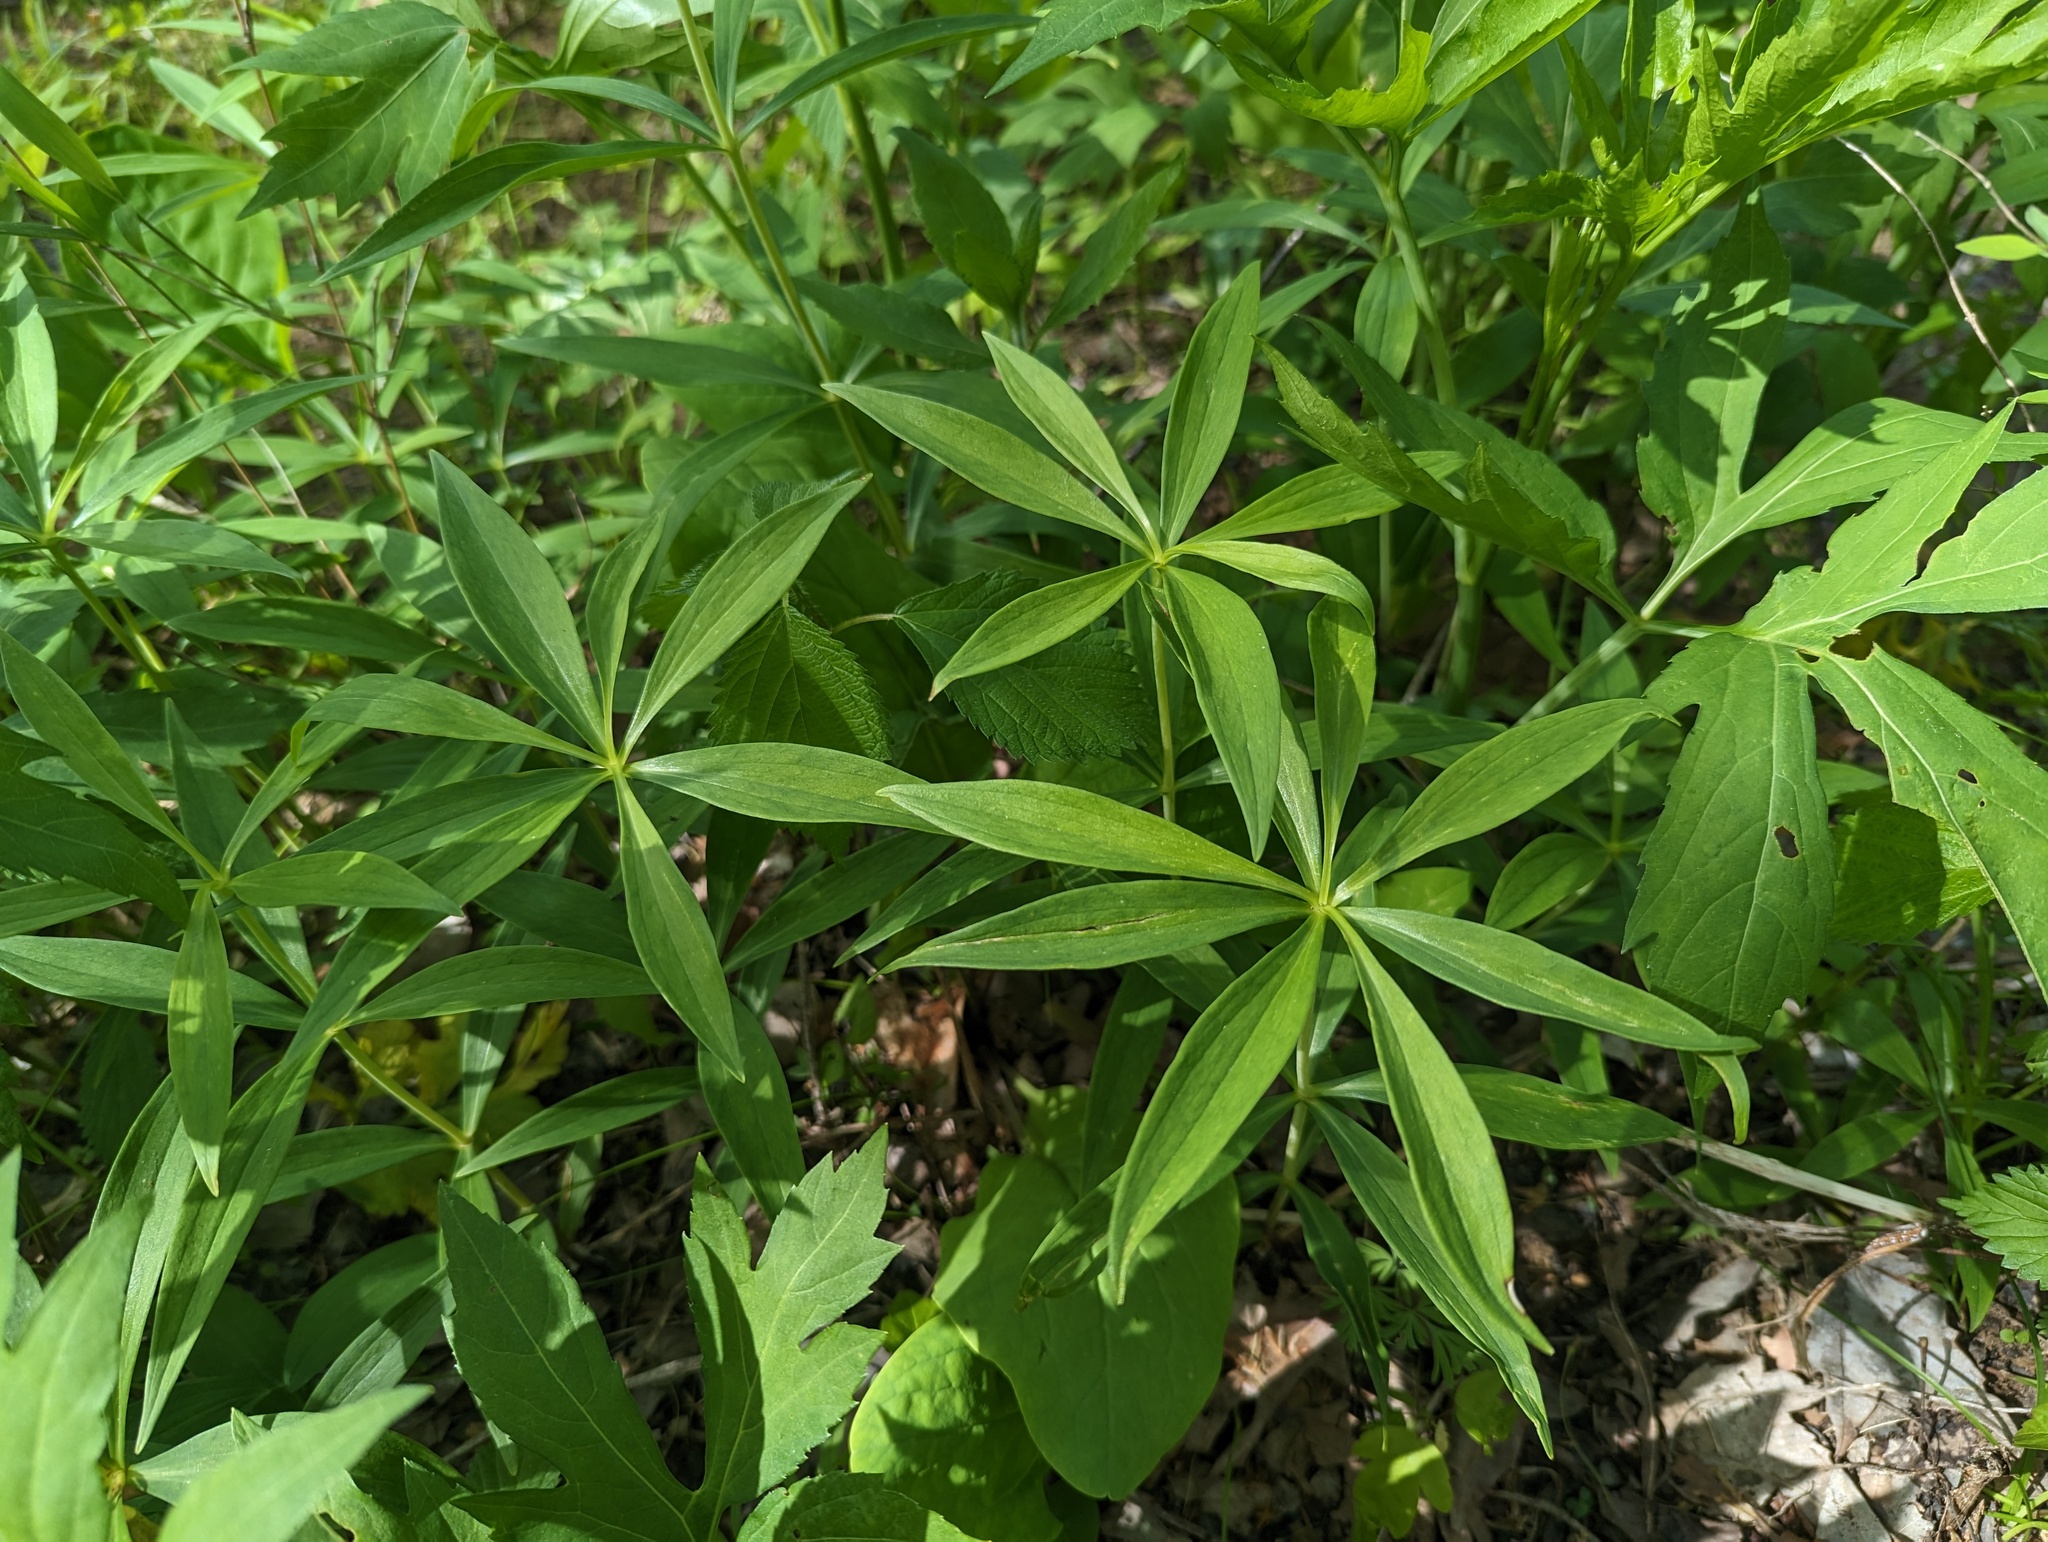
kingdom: Plantae
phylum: Tracheophyta
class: Liliopsida
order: Liliales
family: Liliaceae
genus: Lilium
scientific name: Lilium michiganense
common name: Michigan lily
